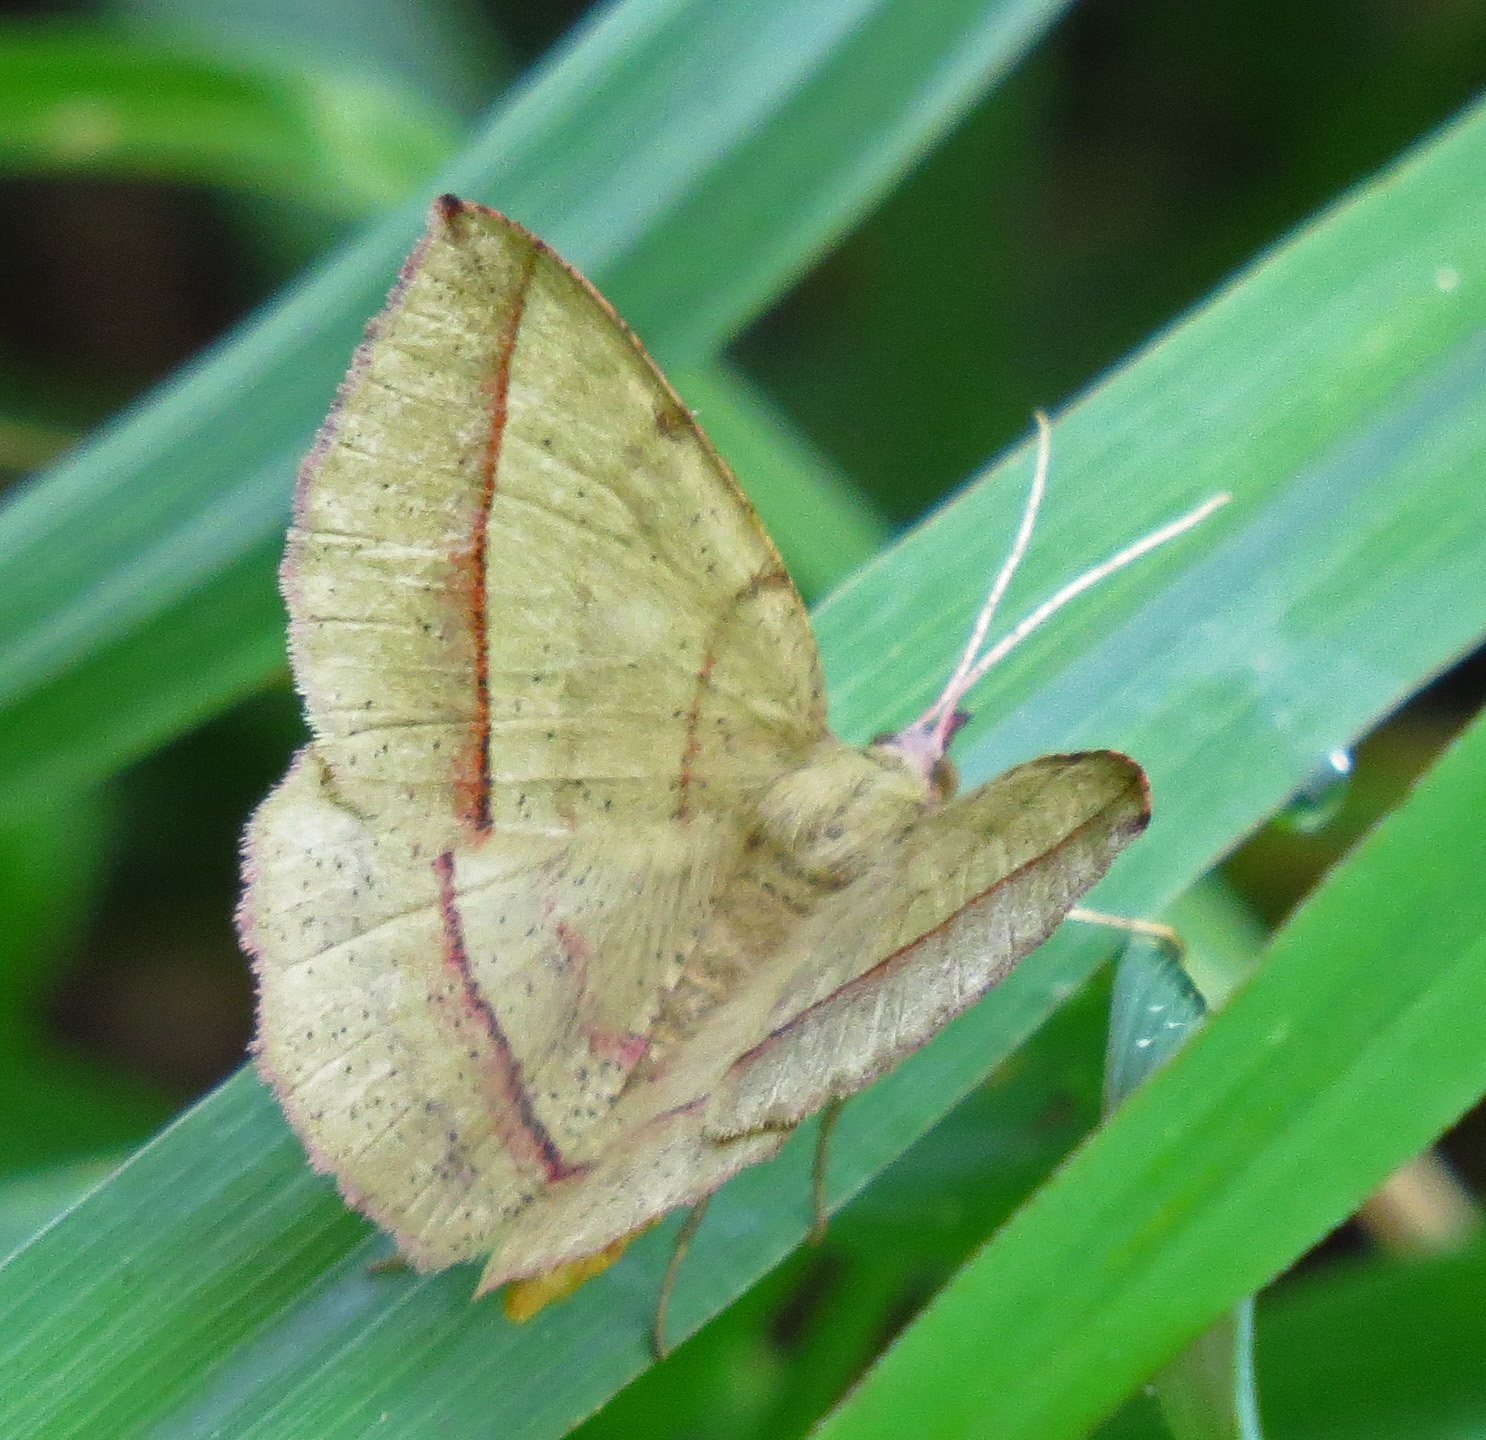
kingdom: Animalia
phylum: Arthropoda
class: Insecta
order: Lepidoptera
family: Geometridae
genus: Erastria
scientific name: Erastria cruentaria
